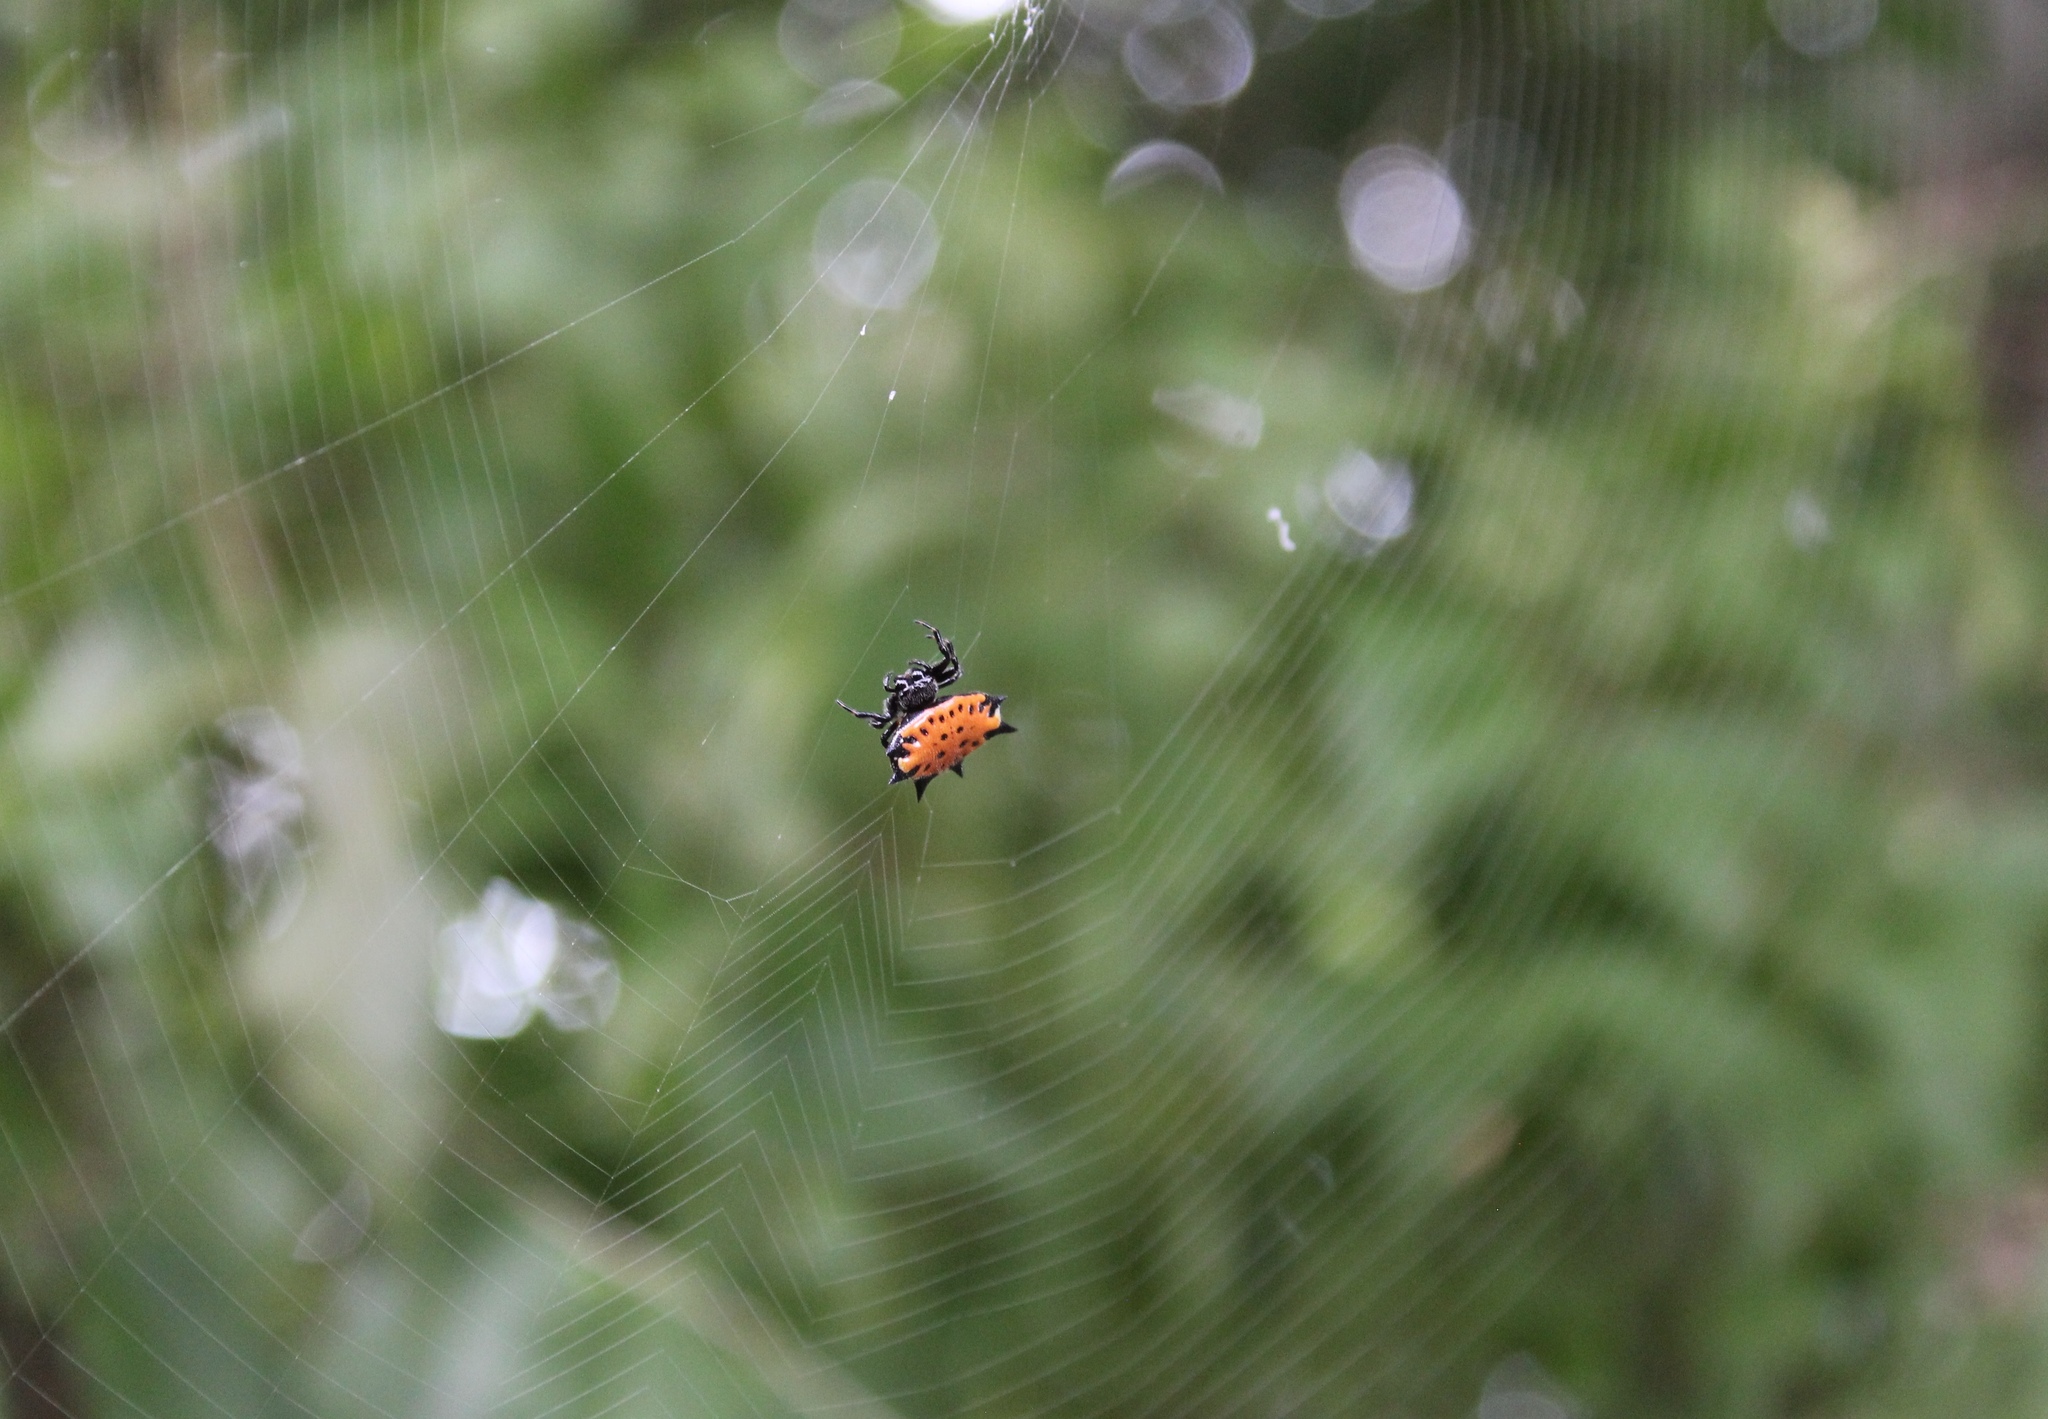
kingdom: Animalia
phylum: Arthropoda
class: Arachnida
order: Araneae
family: Araneidae
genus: Gasteracantha
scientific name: Gasteracantha cancriformis
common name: Orb weavers
